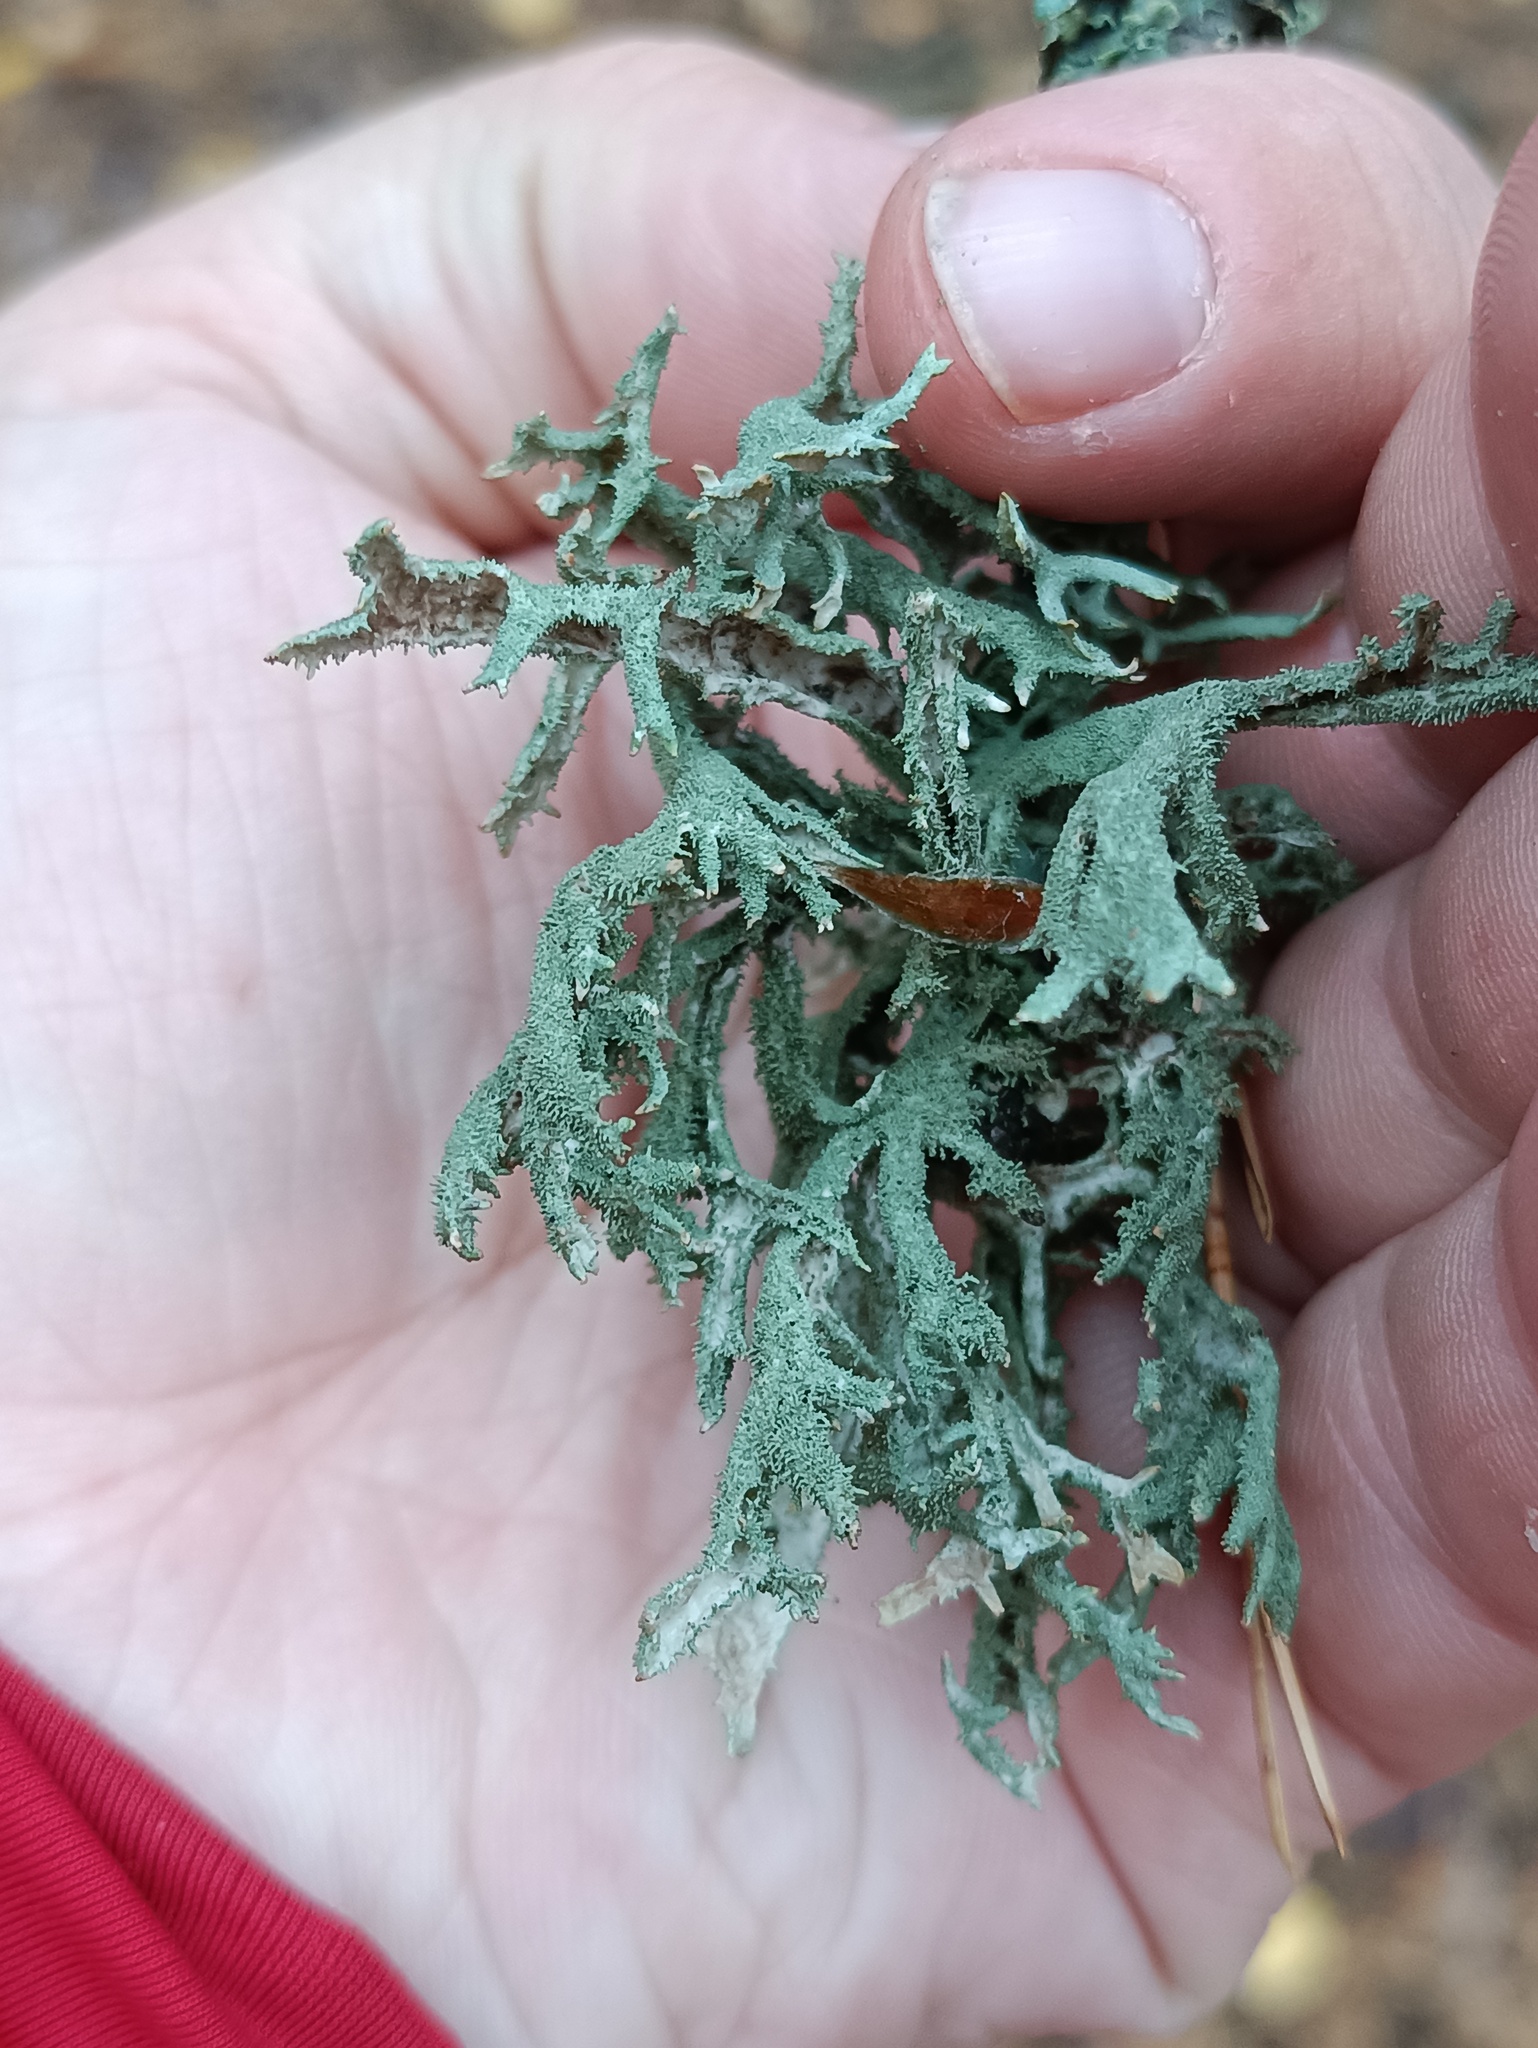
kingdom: Fungi
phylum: Ascomycota
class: Lecanoromycetes
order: Lecanorales
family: Parmeliaceae
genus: Pseudevernia
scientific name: Pseudevernia furfuracea
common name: Tree moss
